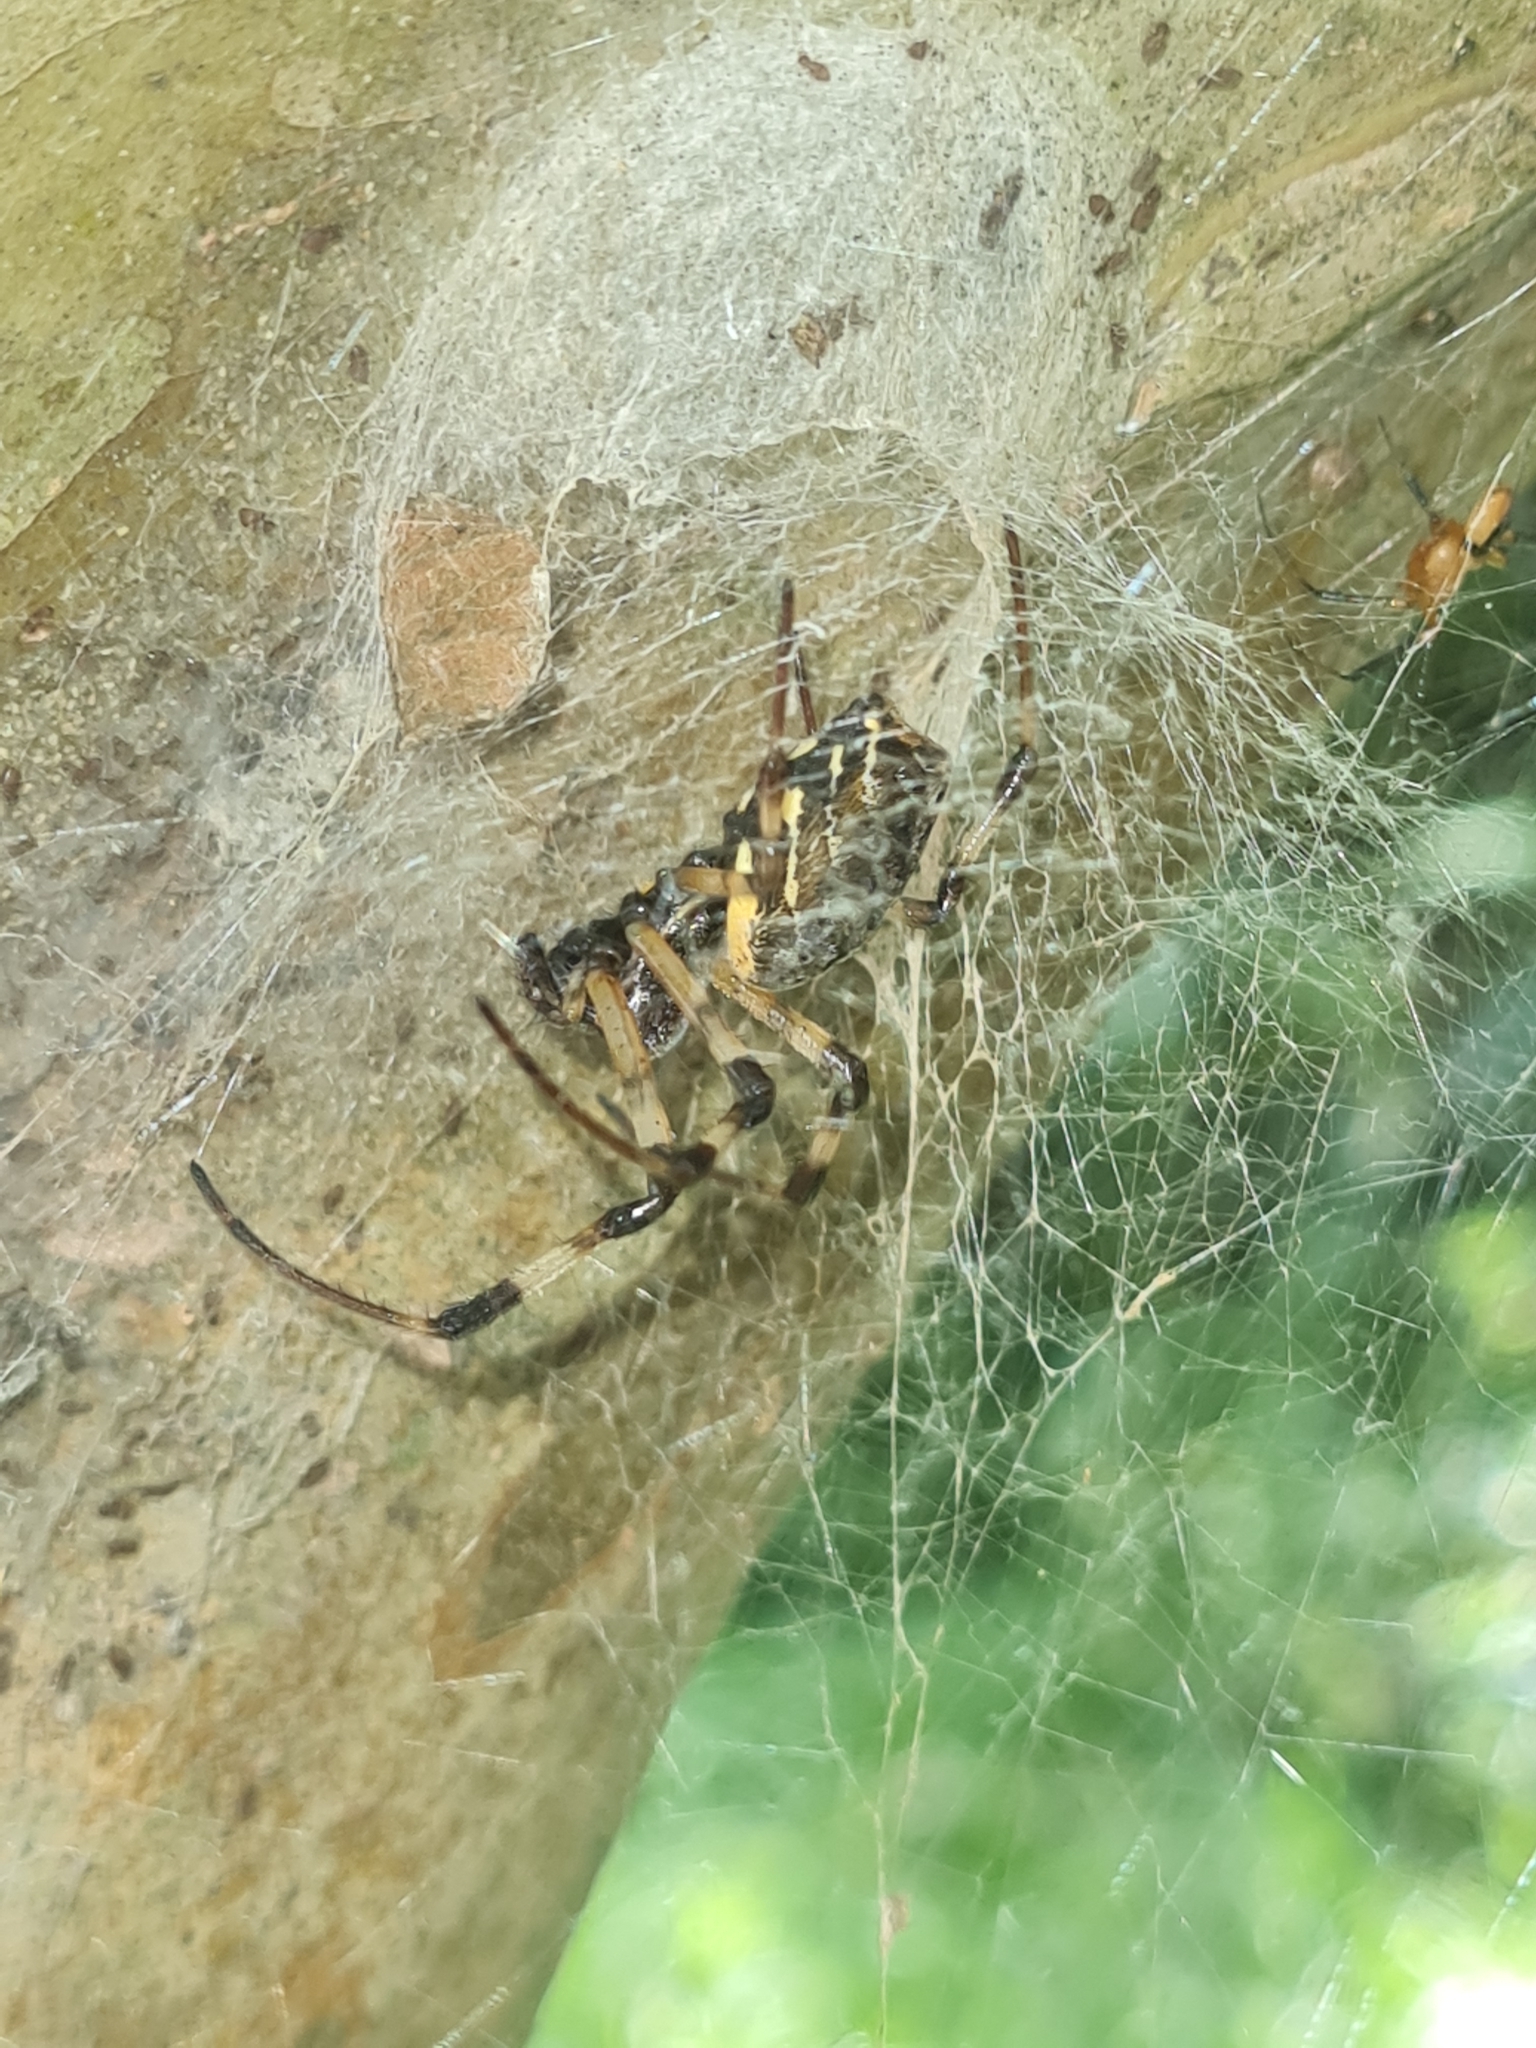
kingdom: Animalia
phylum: Arthropoda
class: Arachnida
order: Araneae
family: Araneidae
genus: Nephilingis
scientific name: Nephilingis cruentata
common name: African hermit spider
